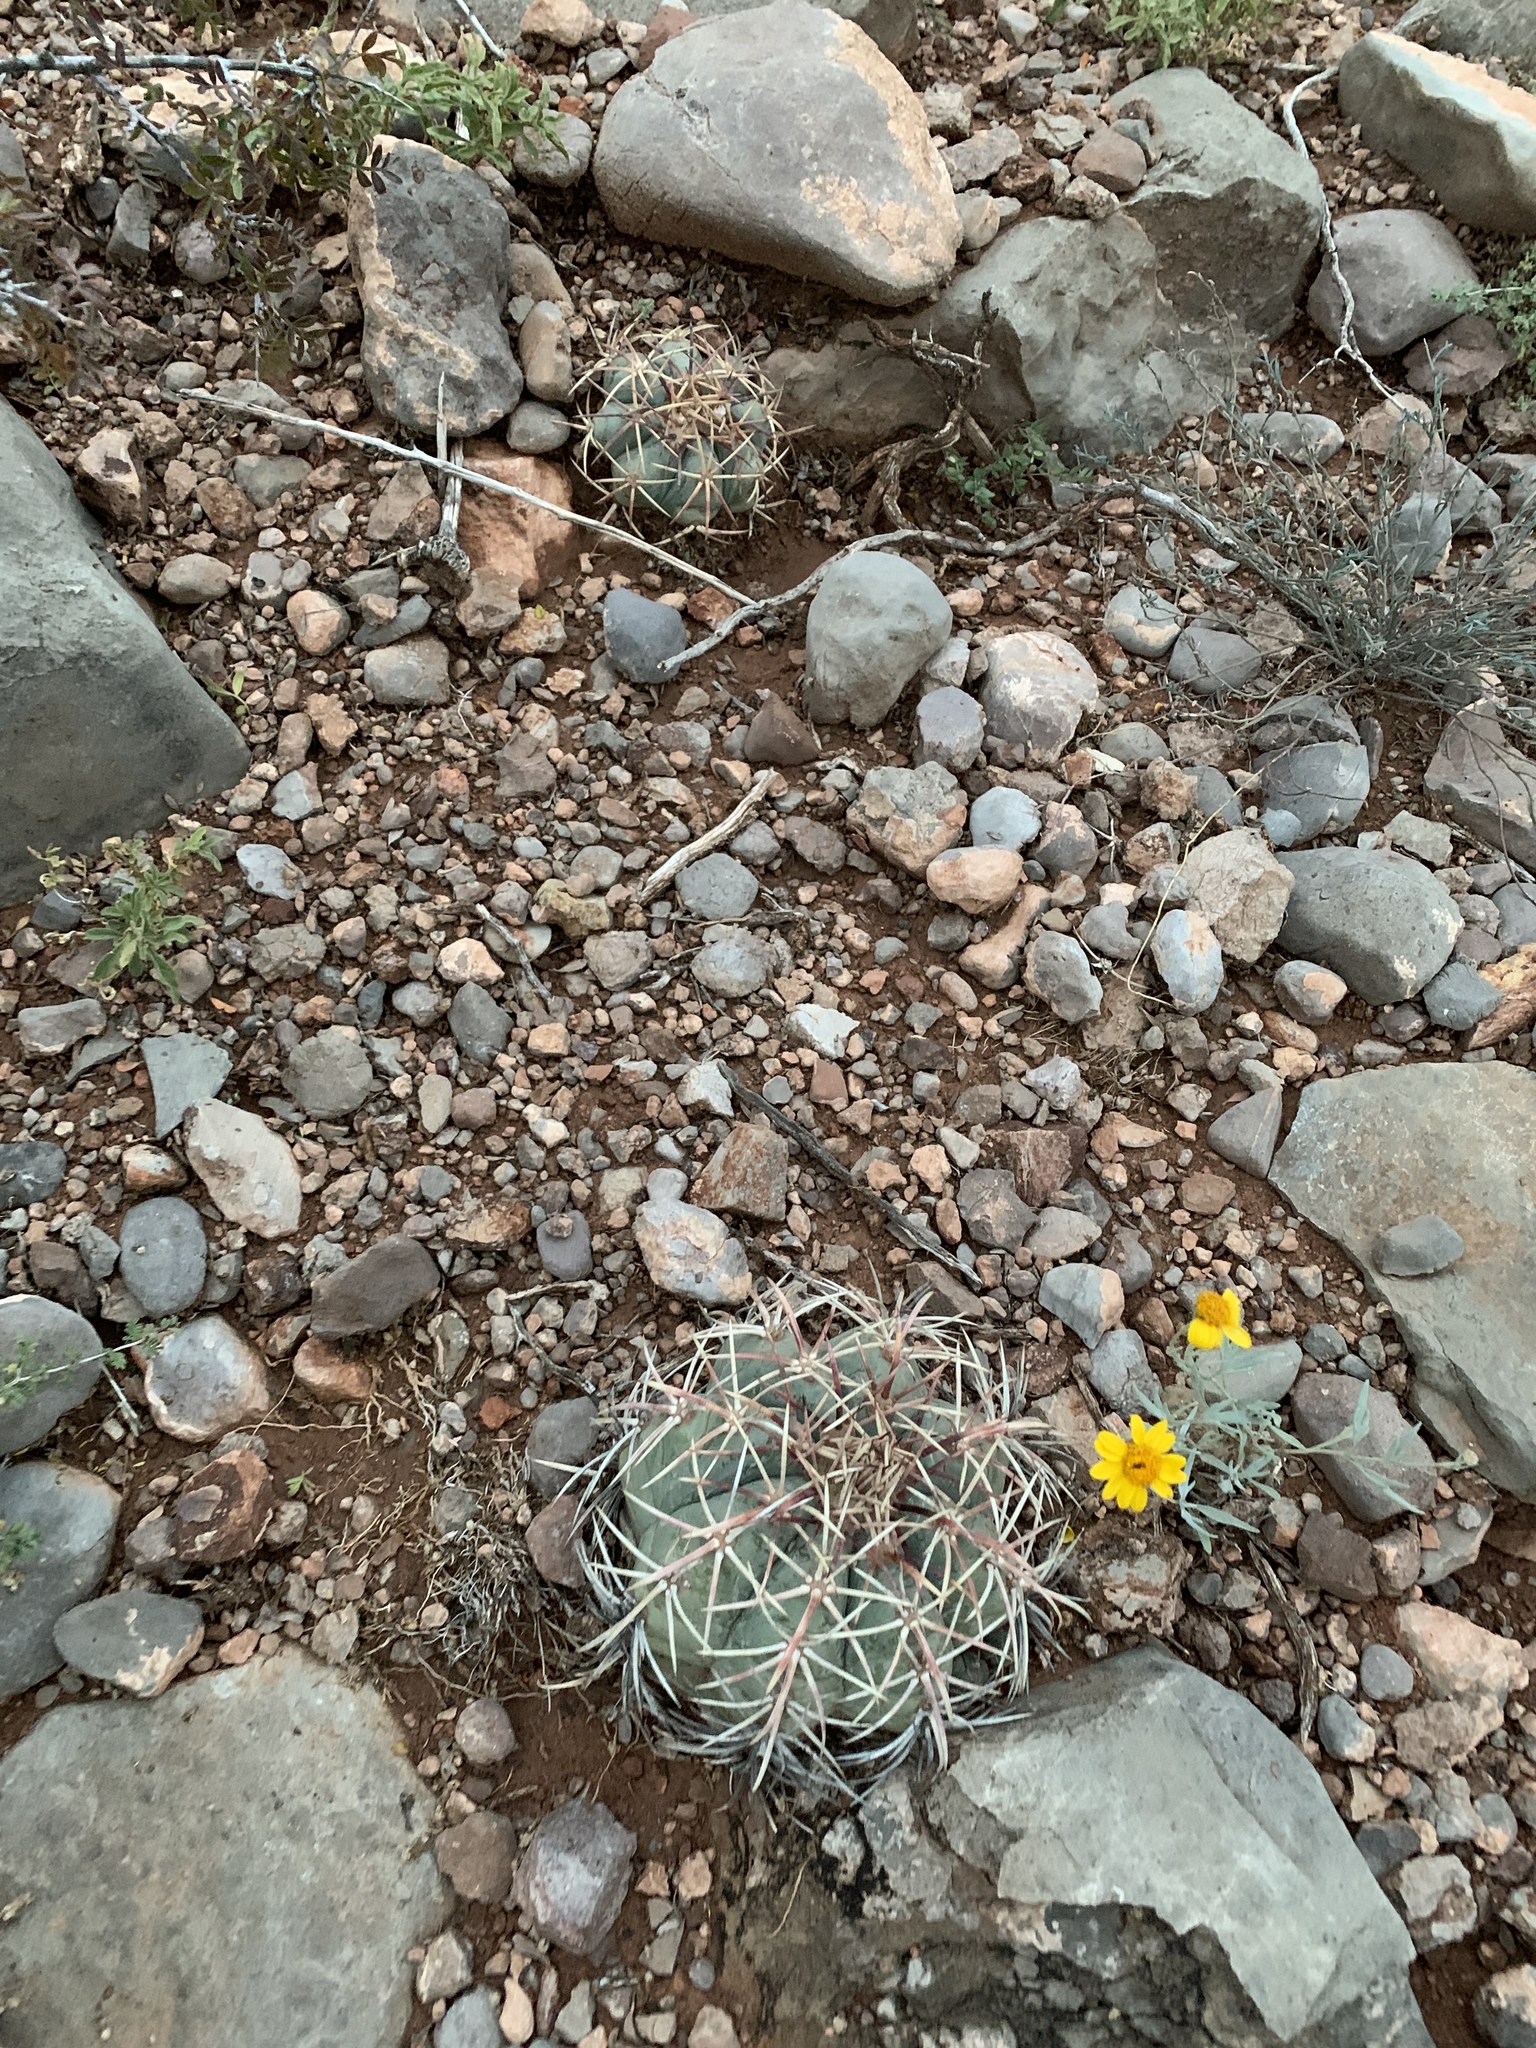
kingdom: Plantae
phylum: Tracheophyta
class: Magnoliopsida
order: Caryophyllales
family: Cactaceae
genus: Echinocactus
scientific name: Echinocactus horizonthalonius
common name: Devilshead
